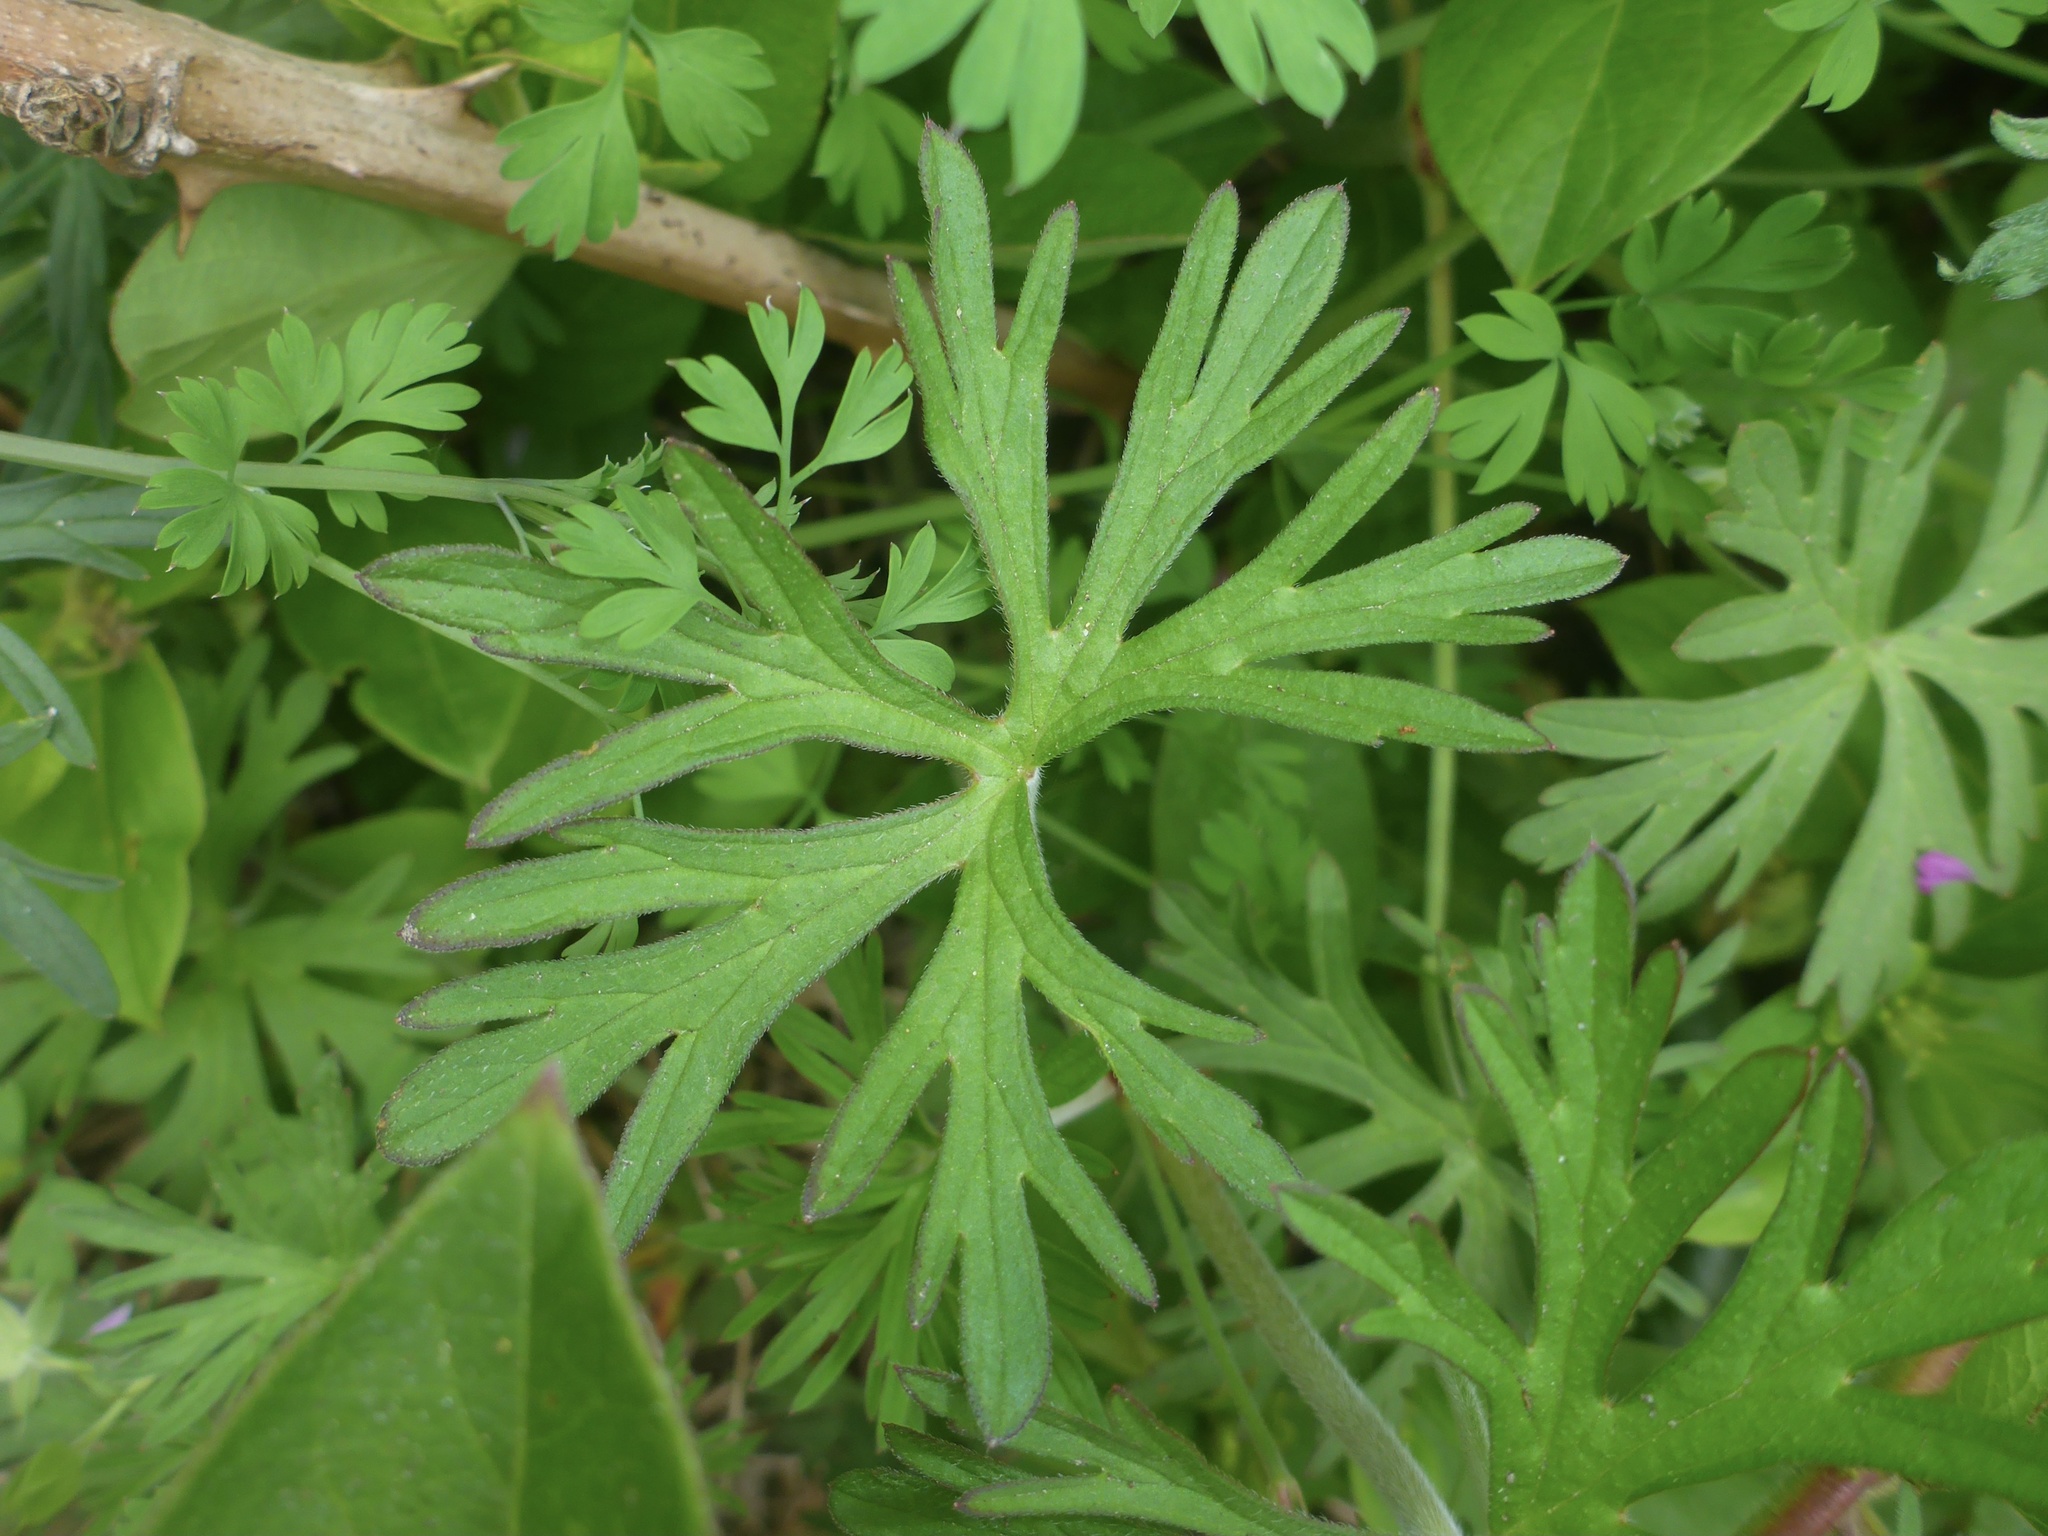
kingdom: Plantae
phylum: Tracheophyta
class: Magnoliopsida
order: Geraniales
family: Geraniaceae
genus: Geranium
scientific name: Geranium dissectum
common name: Cut-leaved crane's-bill
